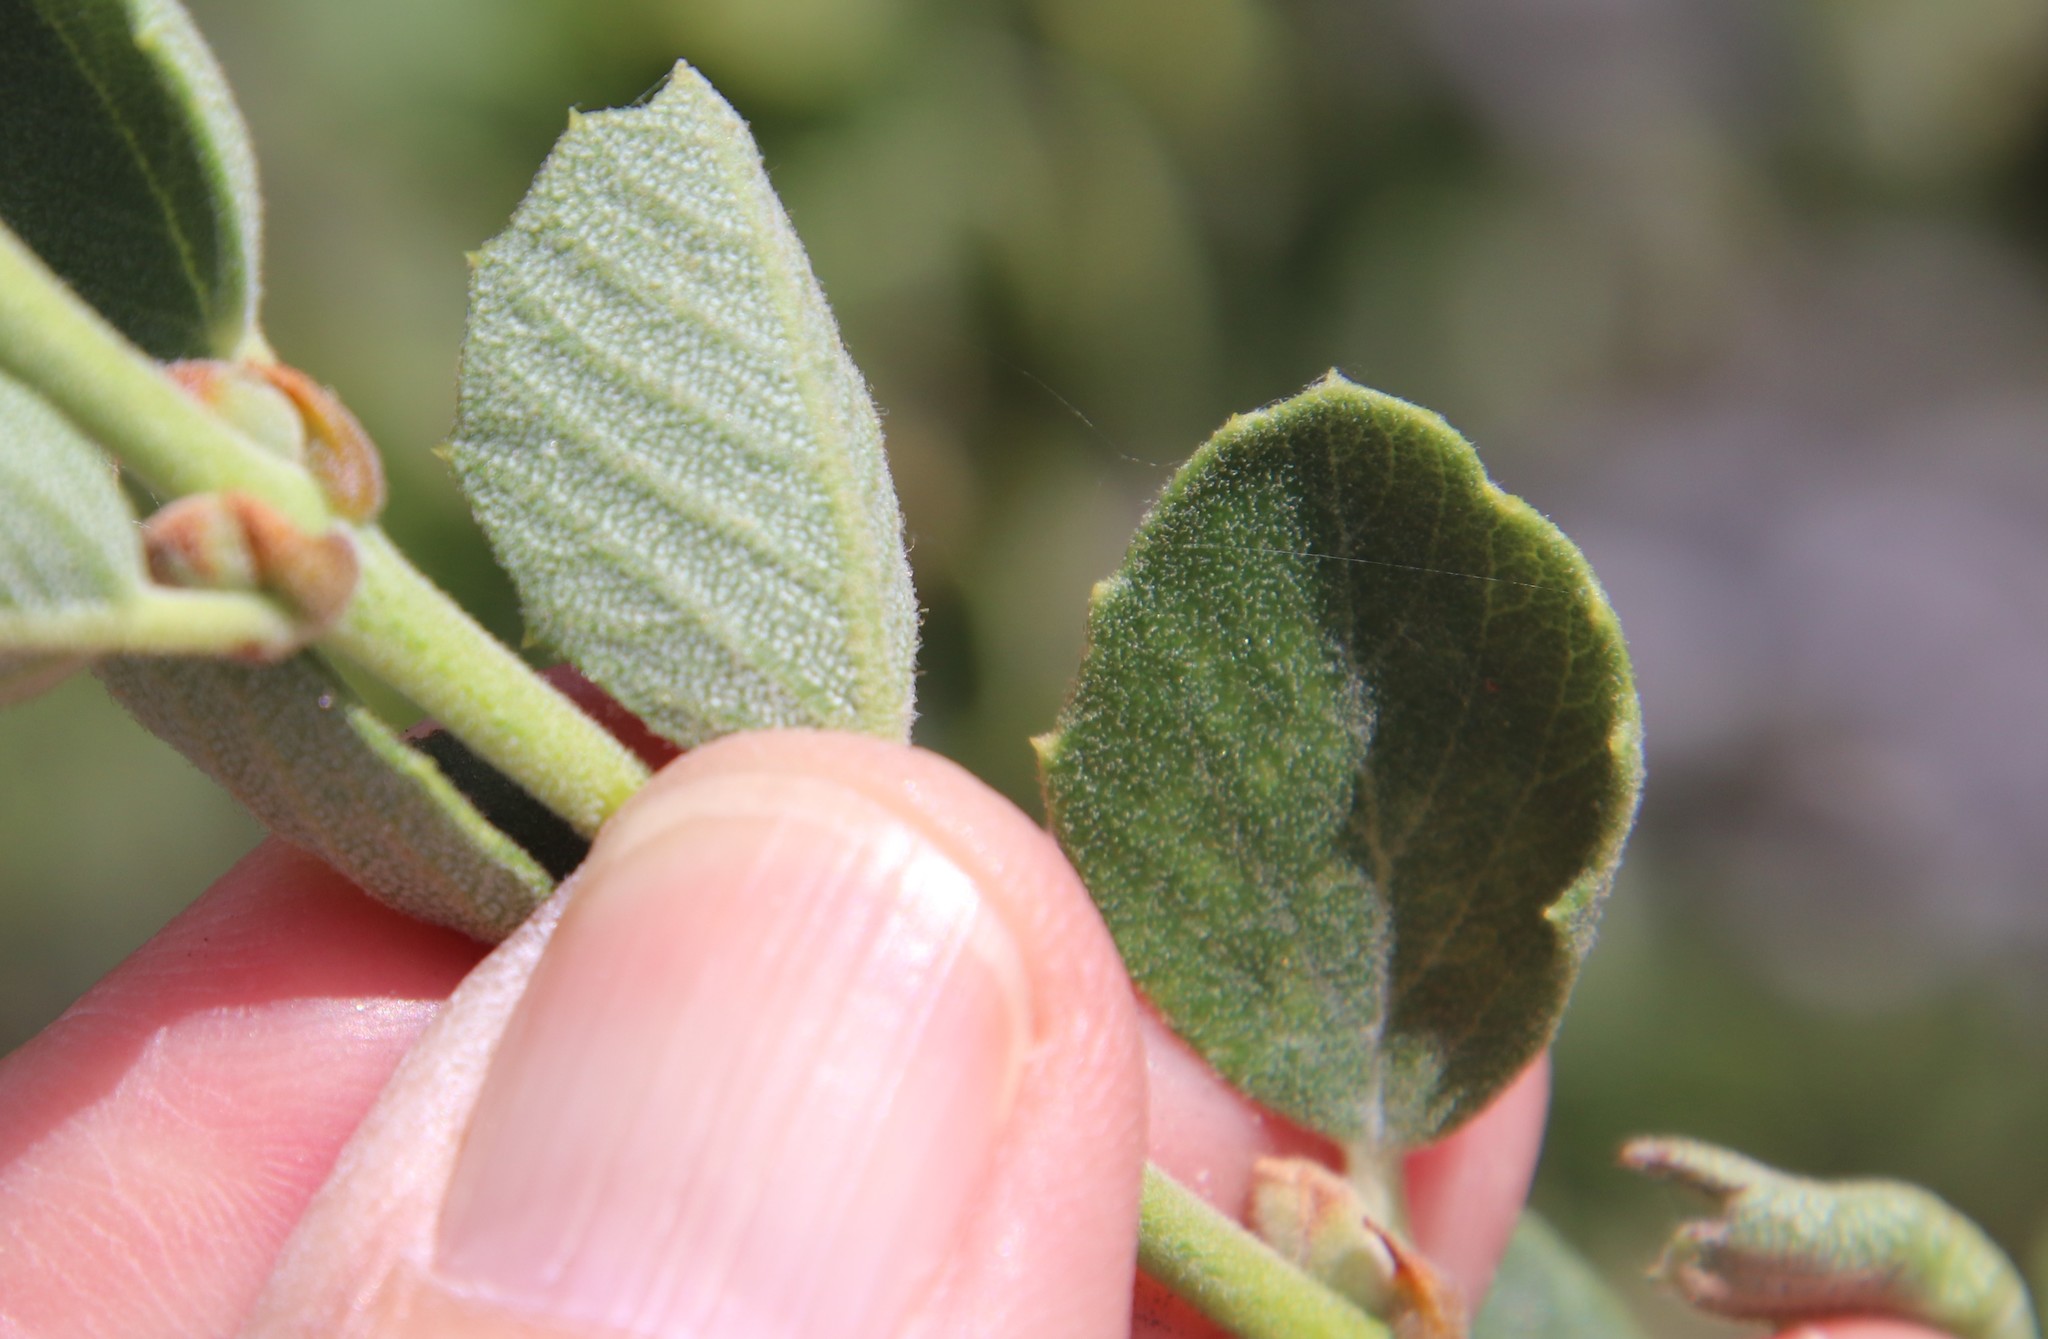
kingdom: Plantae
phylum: Tracheophyta
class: Magnoliopsida
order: Rosales
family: Rhamnaceae
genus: Ceanothus
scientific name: Ceanothus perplexans
